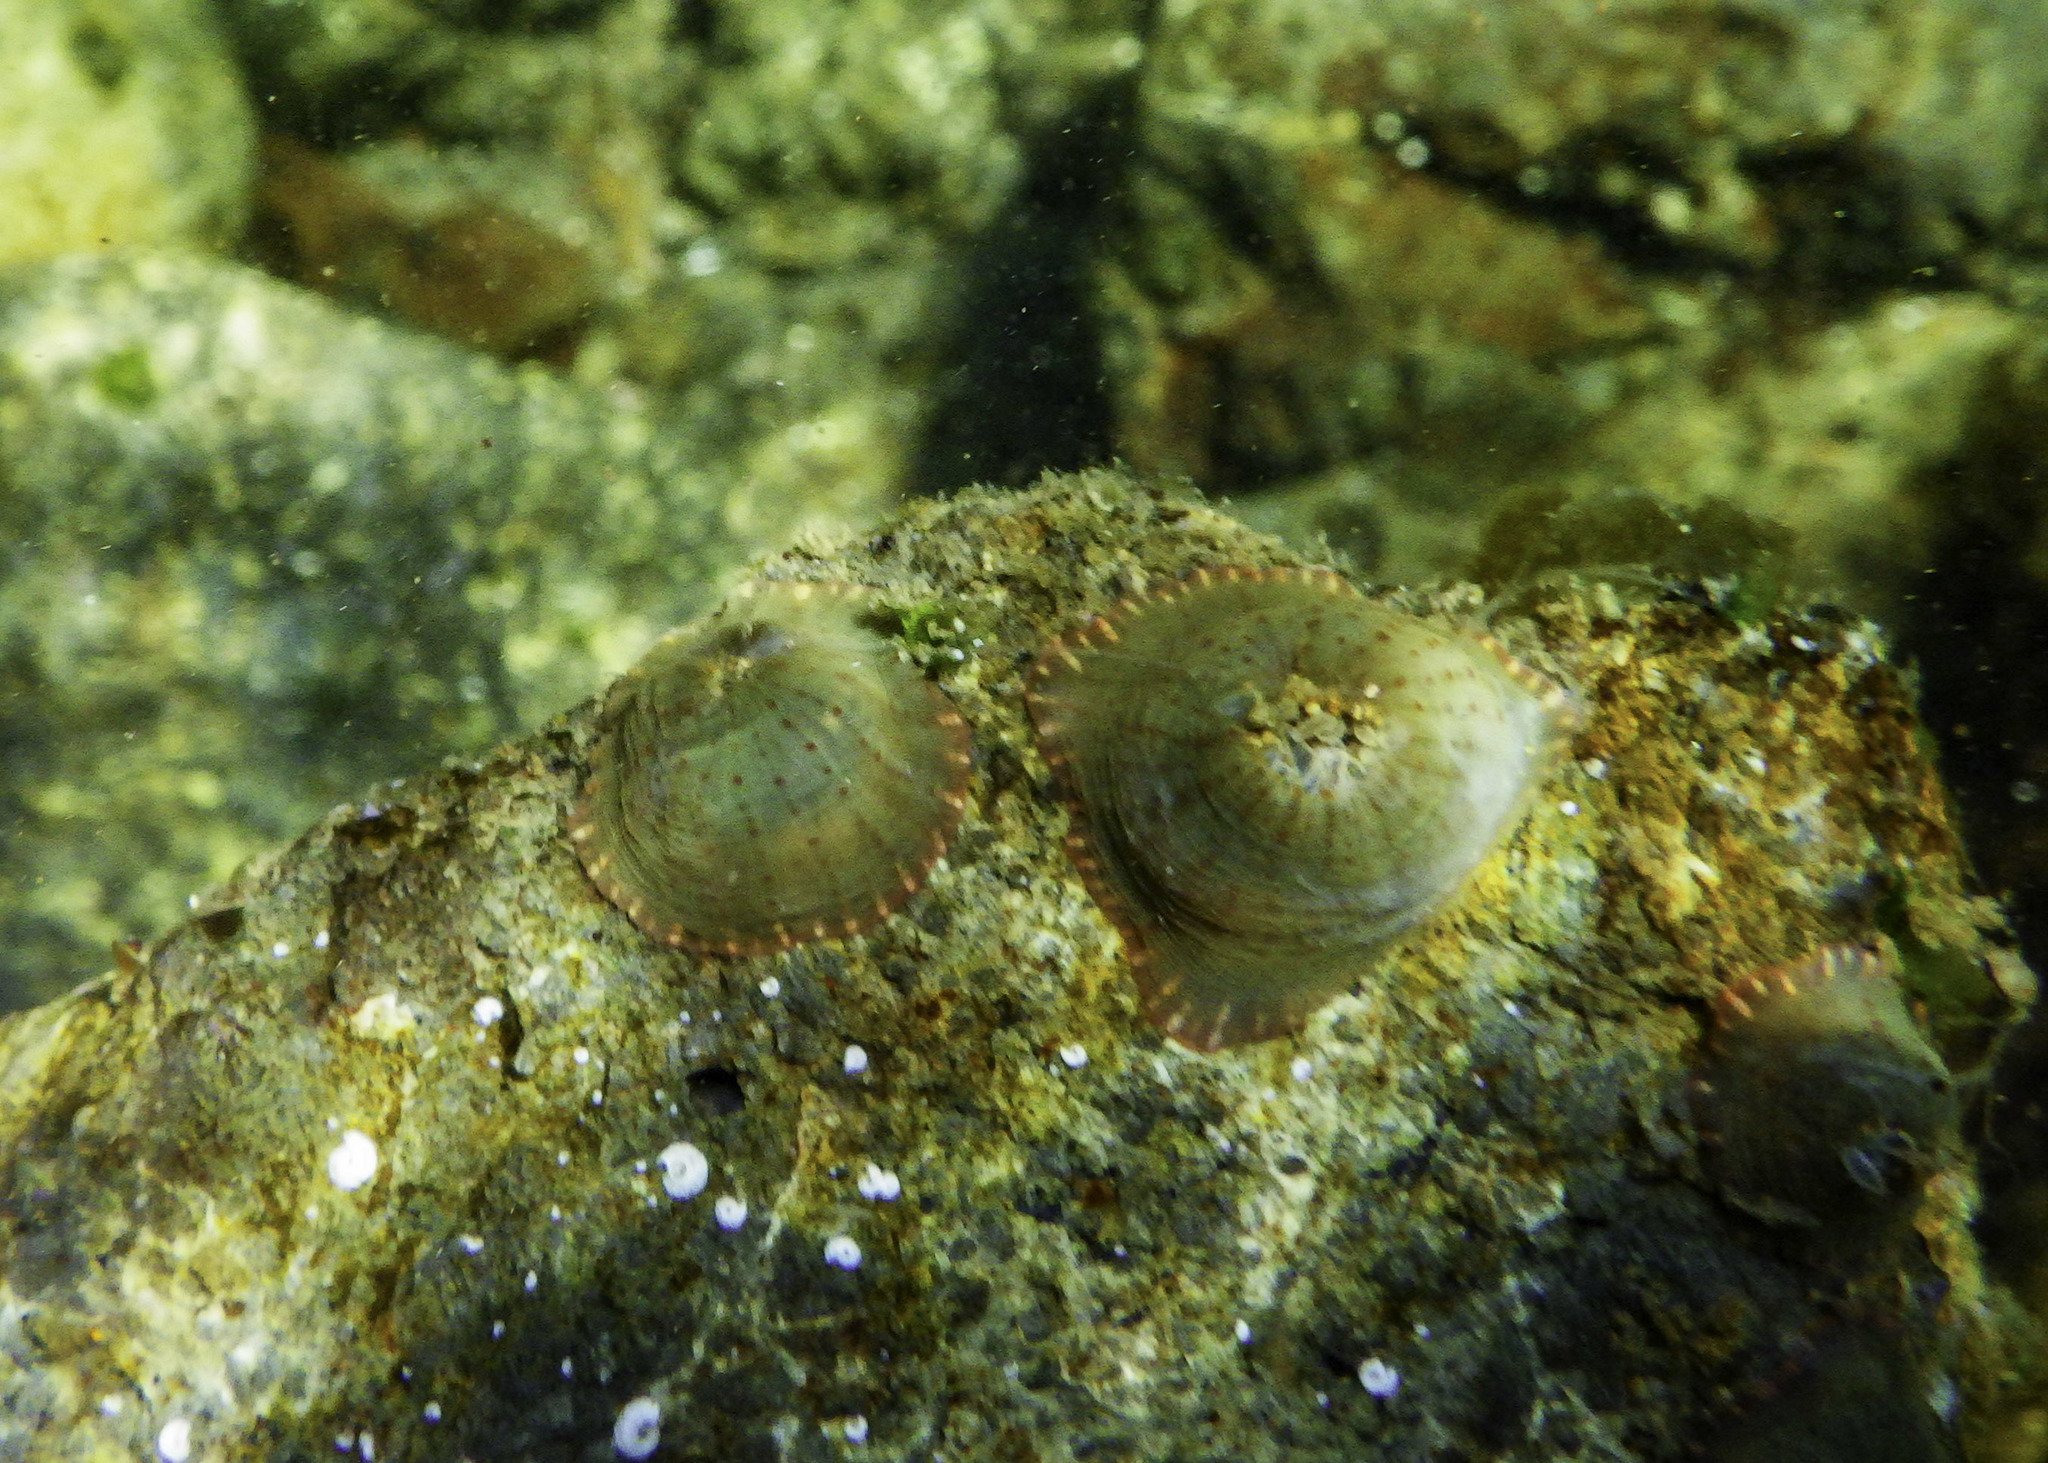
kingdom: Animalia
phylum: Cnidaria
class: Anthozoa
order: Actiniaria
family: Actiniidae
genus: Anthopleura
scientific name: Anthopleura mariae
